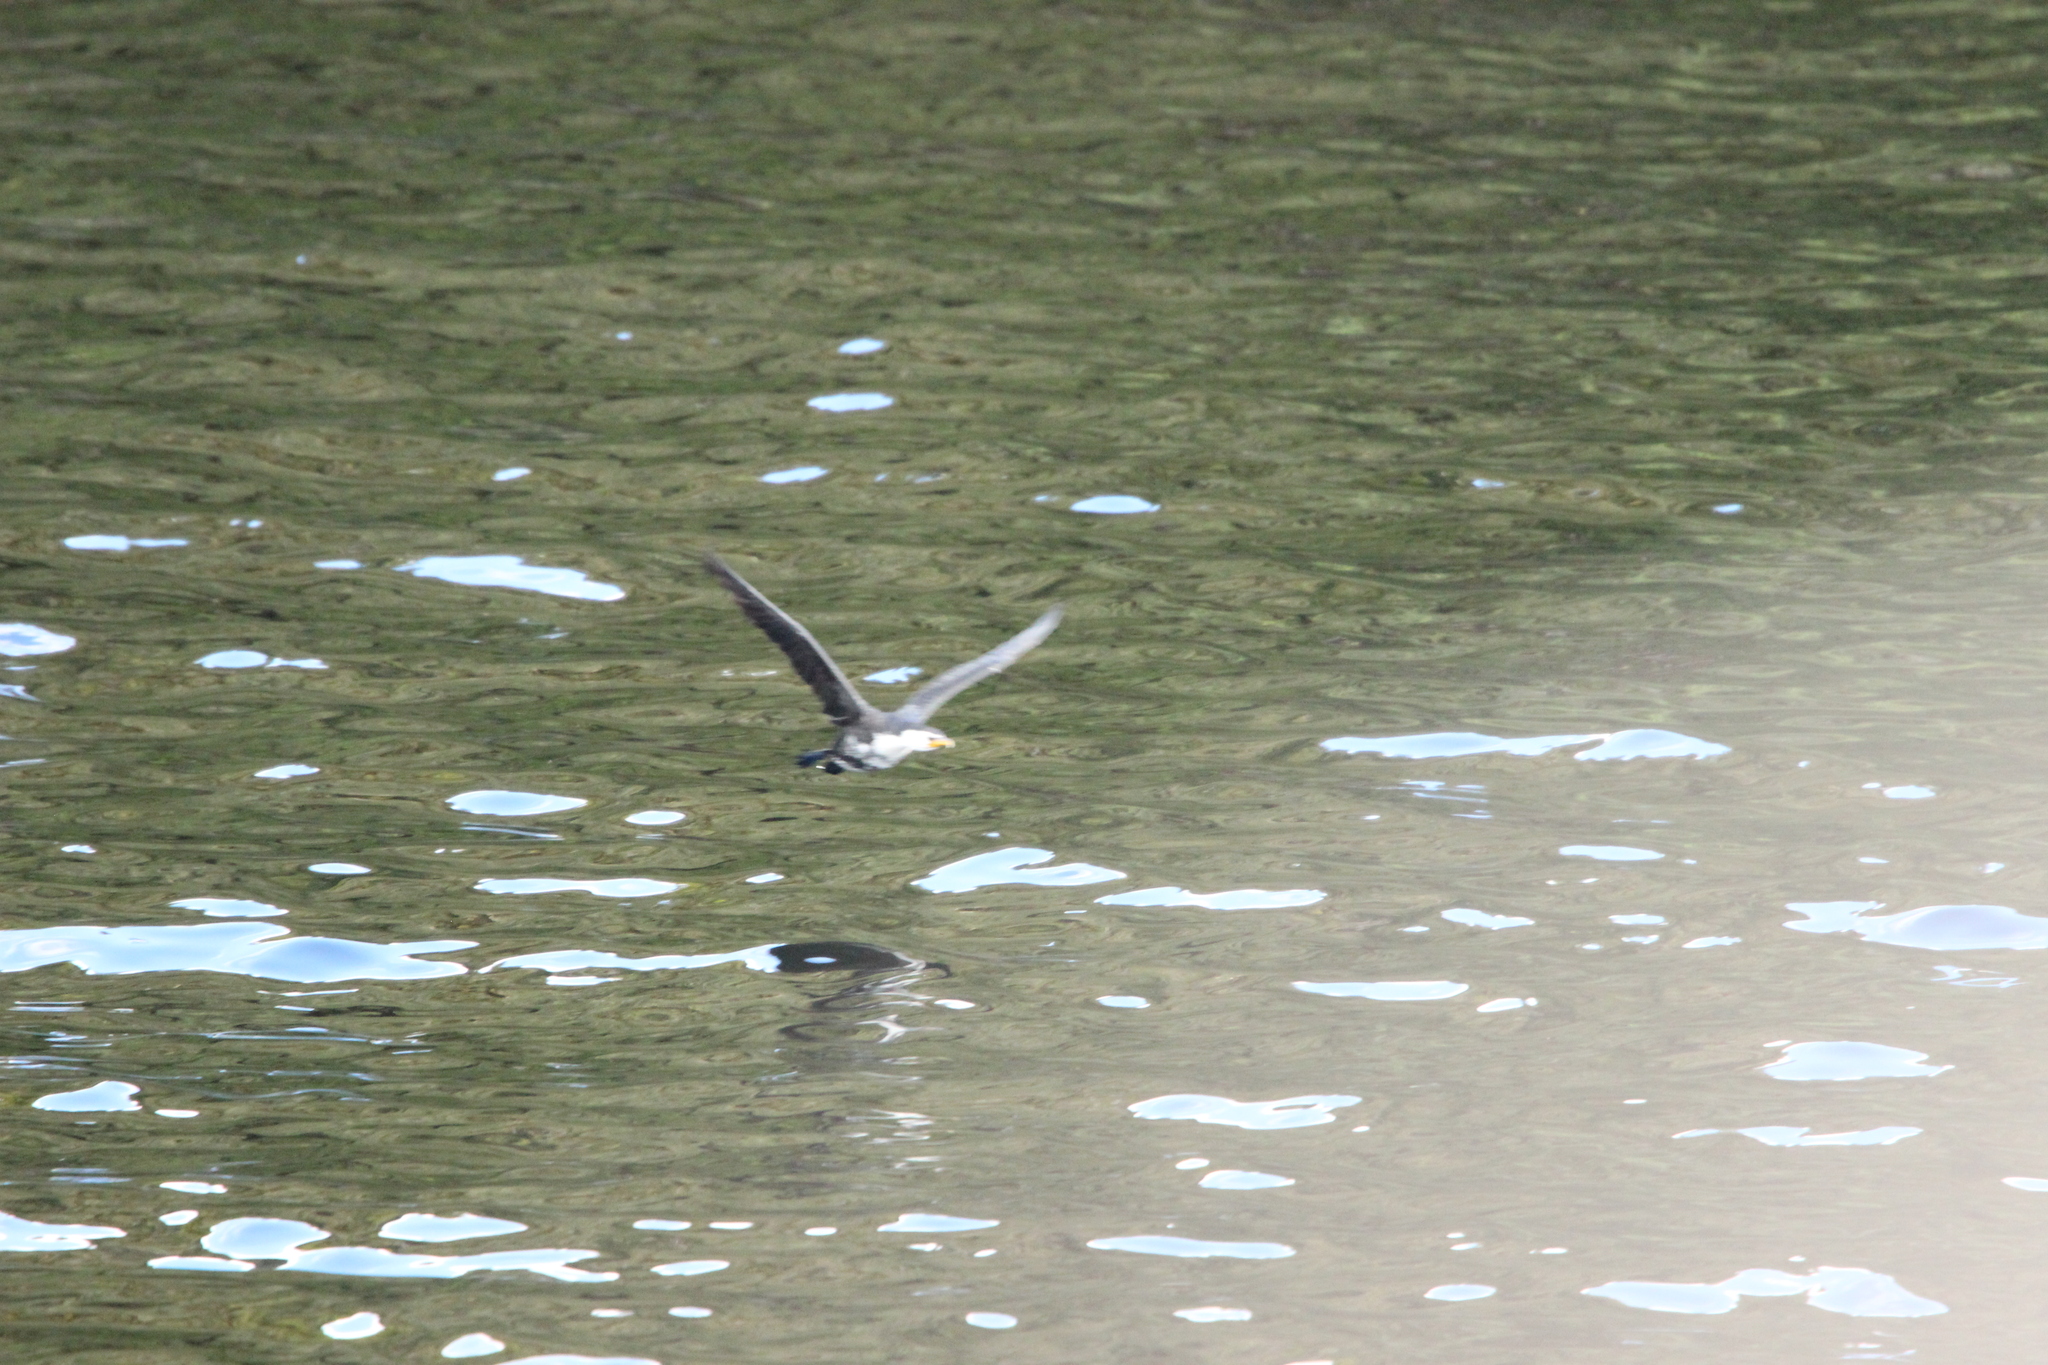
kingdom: Animalia
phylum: Chordata
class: Aves
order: Suliformes
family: Phalacrocoracidae
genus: Microcarbo
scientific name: Microcarbo melanoleucos
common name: Little pied cormorant
